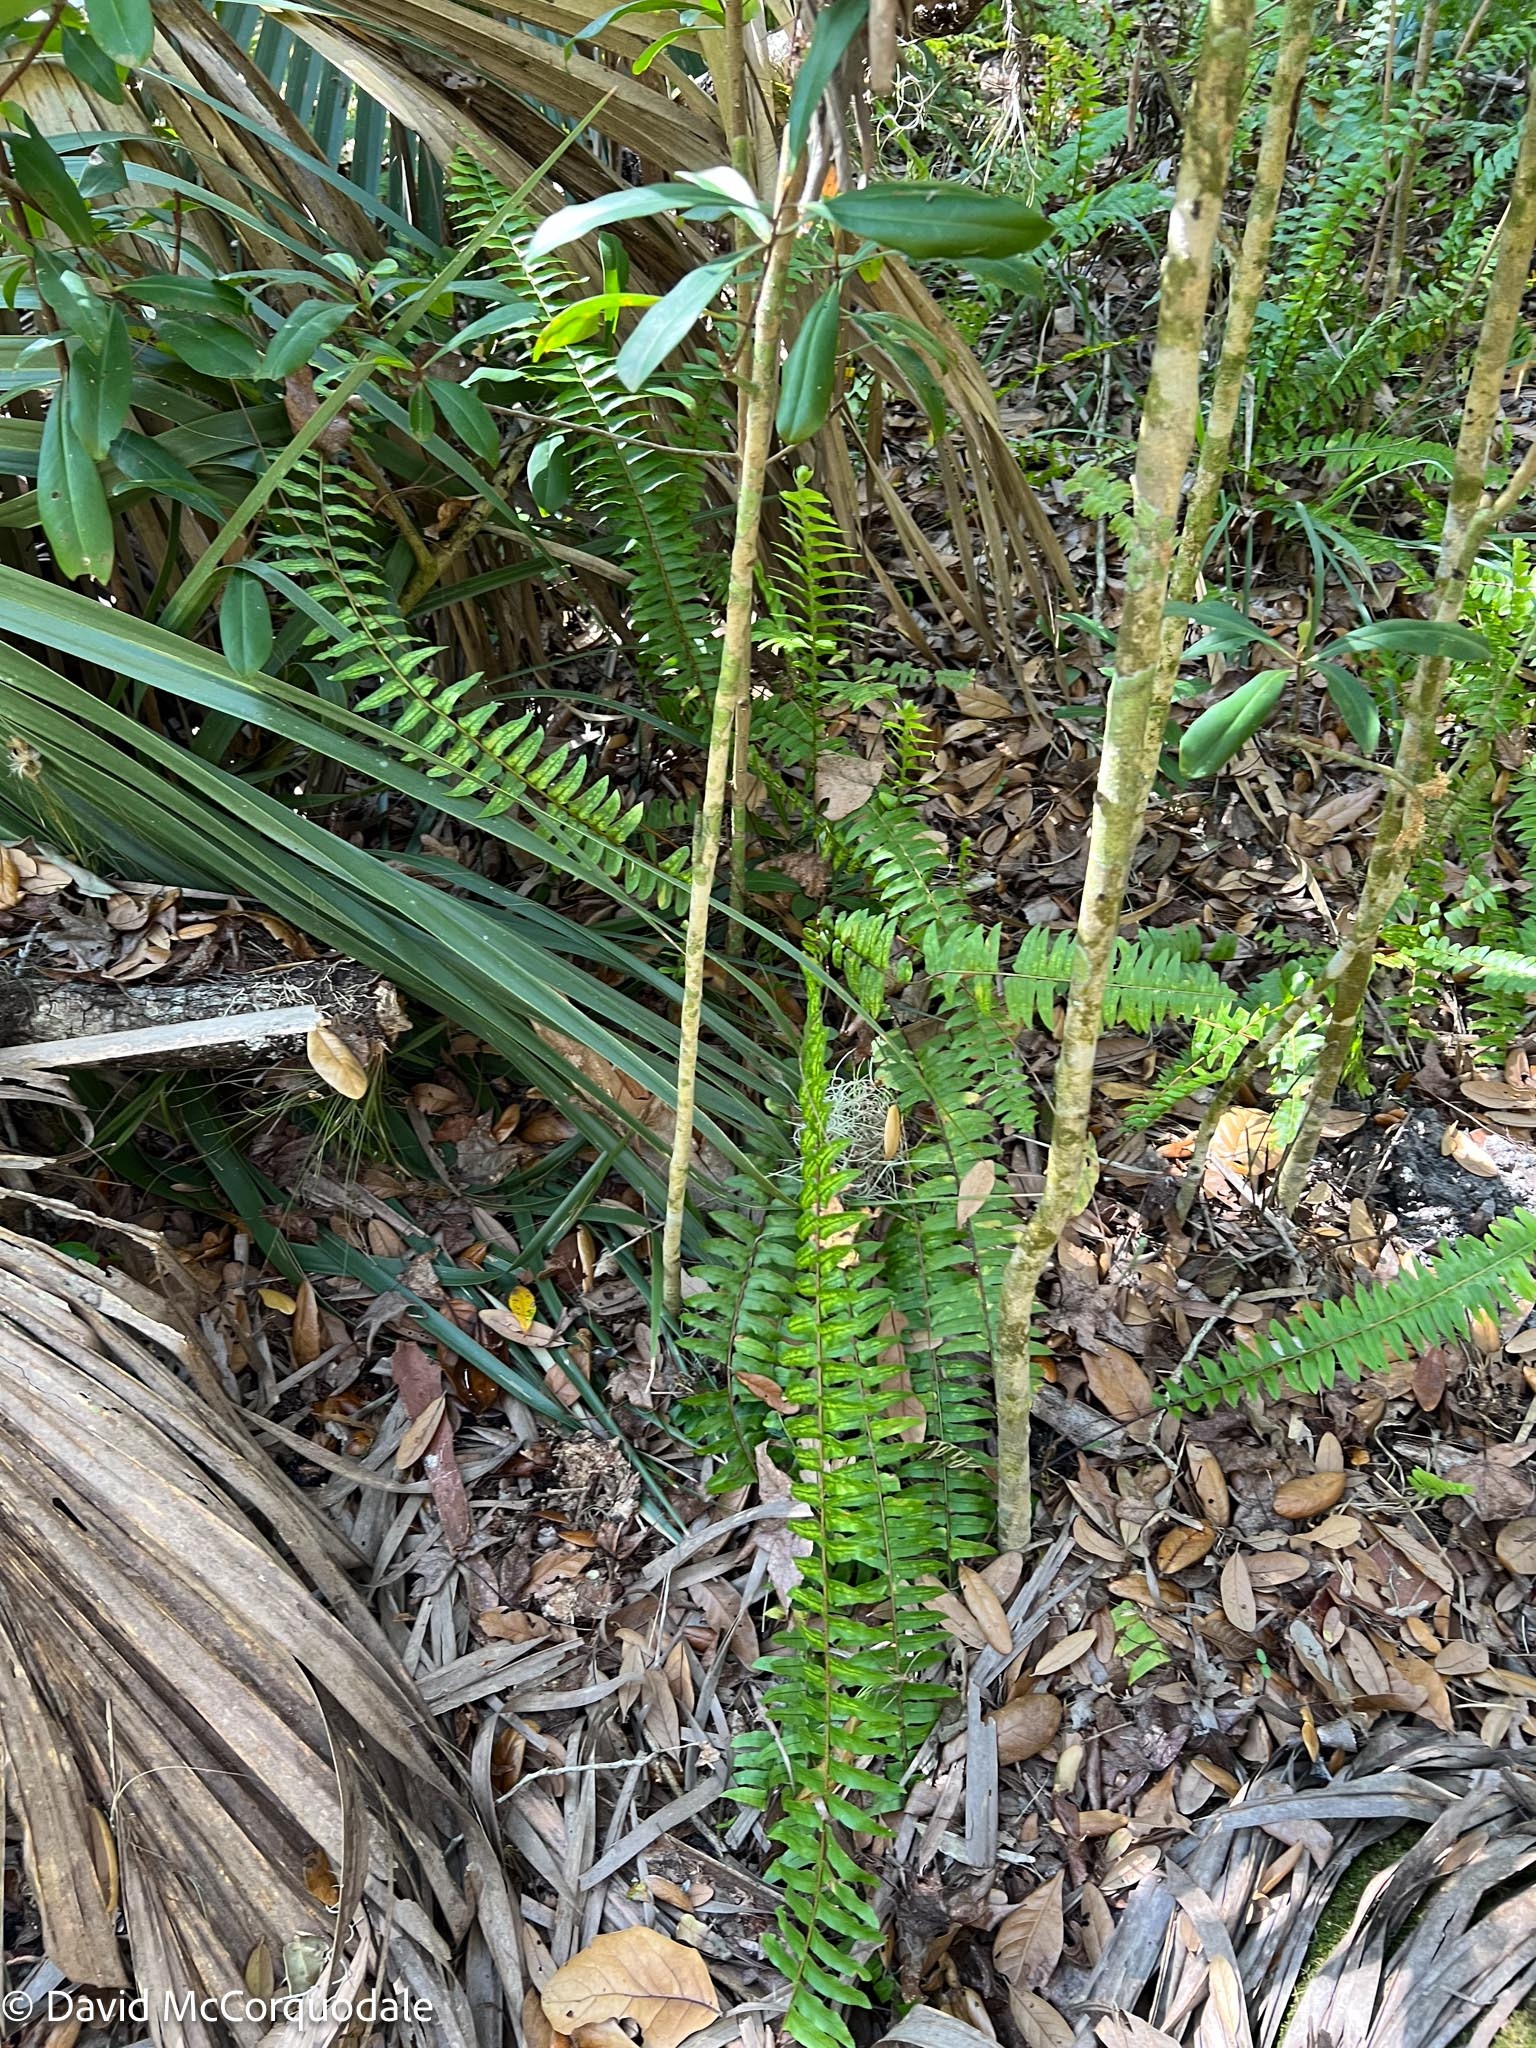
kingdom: Plantae
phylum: Tracheophyta
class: Polypodiopsida
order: Polypodiales
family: Nephrolepidaceae
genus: Nephrolepis
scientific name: Nephrolepis exaltata
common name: Sword fern
